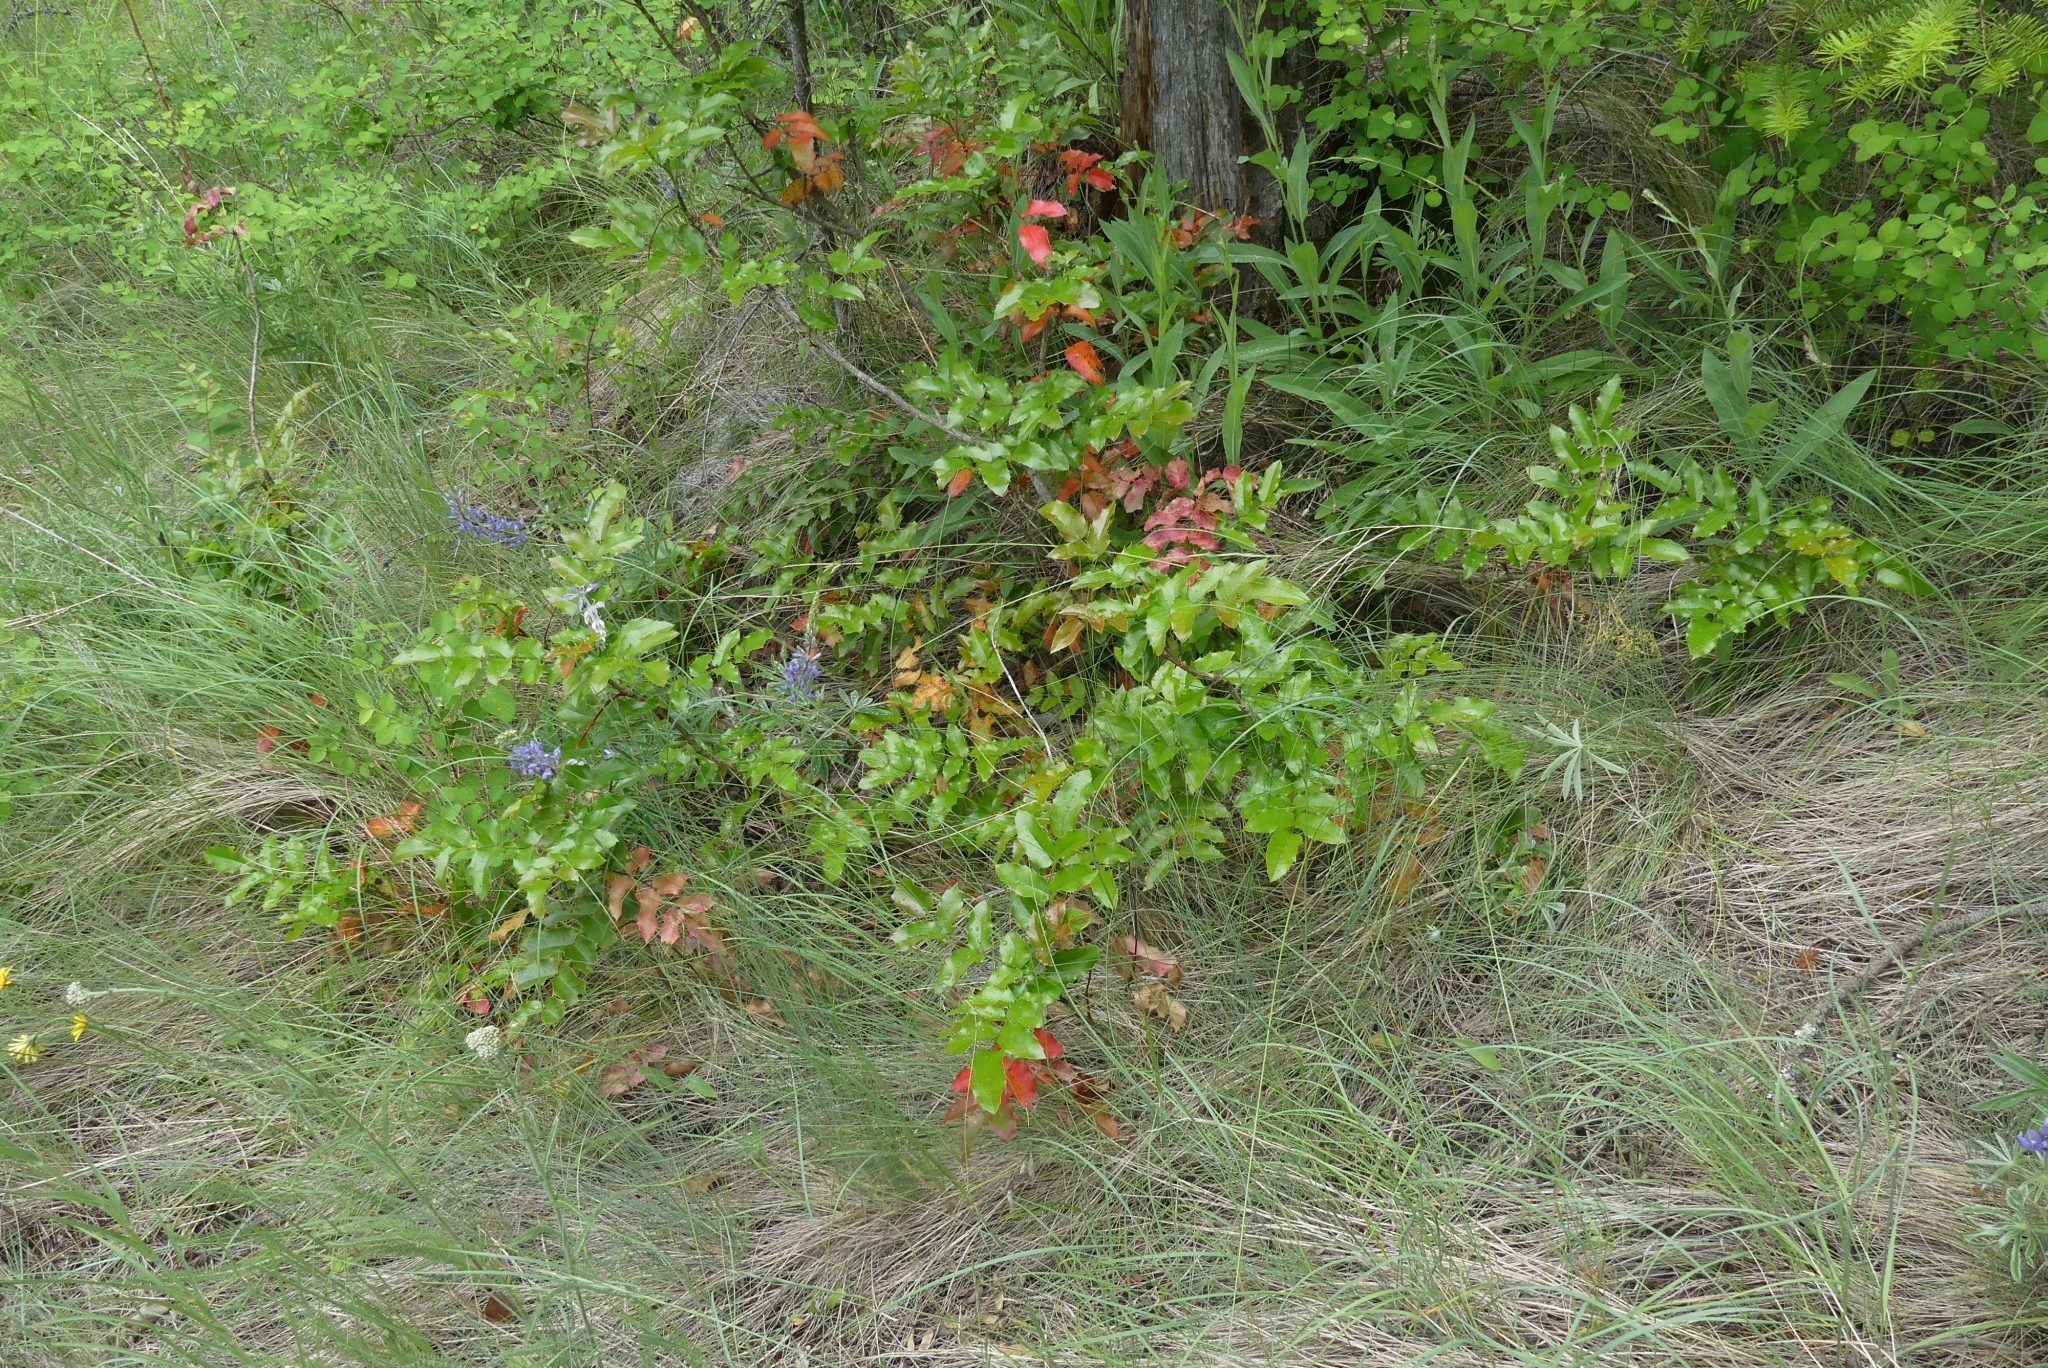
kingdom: Plantae
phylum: Tracheophyta
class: Magnoliopsida
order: Ranunculales
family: Berberidaceae
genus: Mahonia
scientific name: Mahonia aquifolium
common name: Oregon-grape
